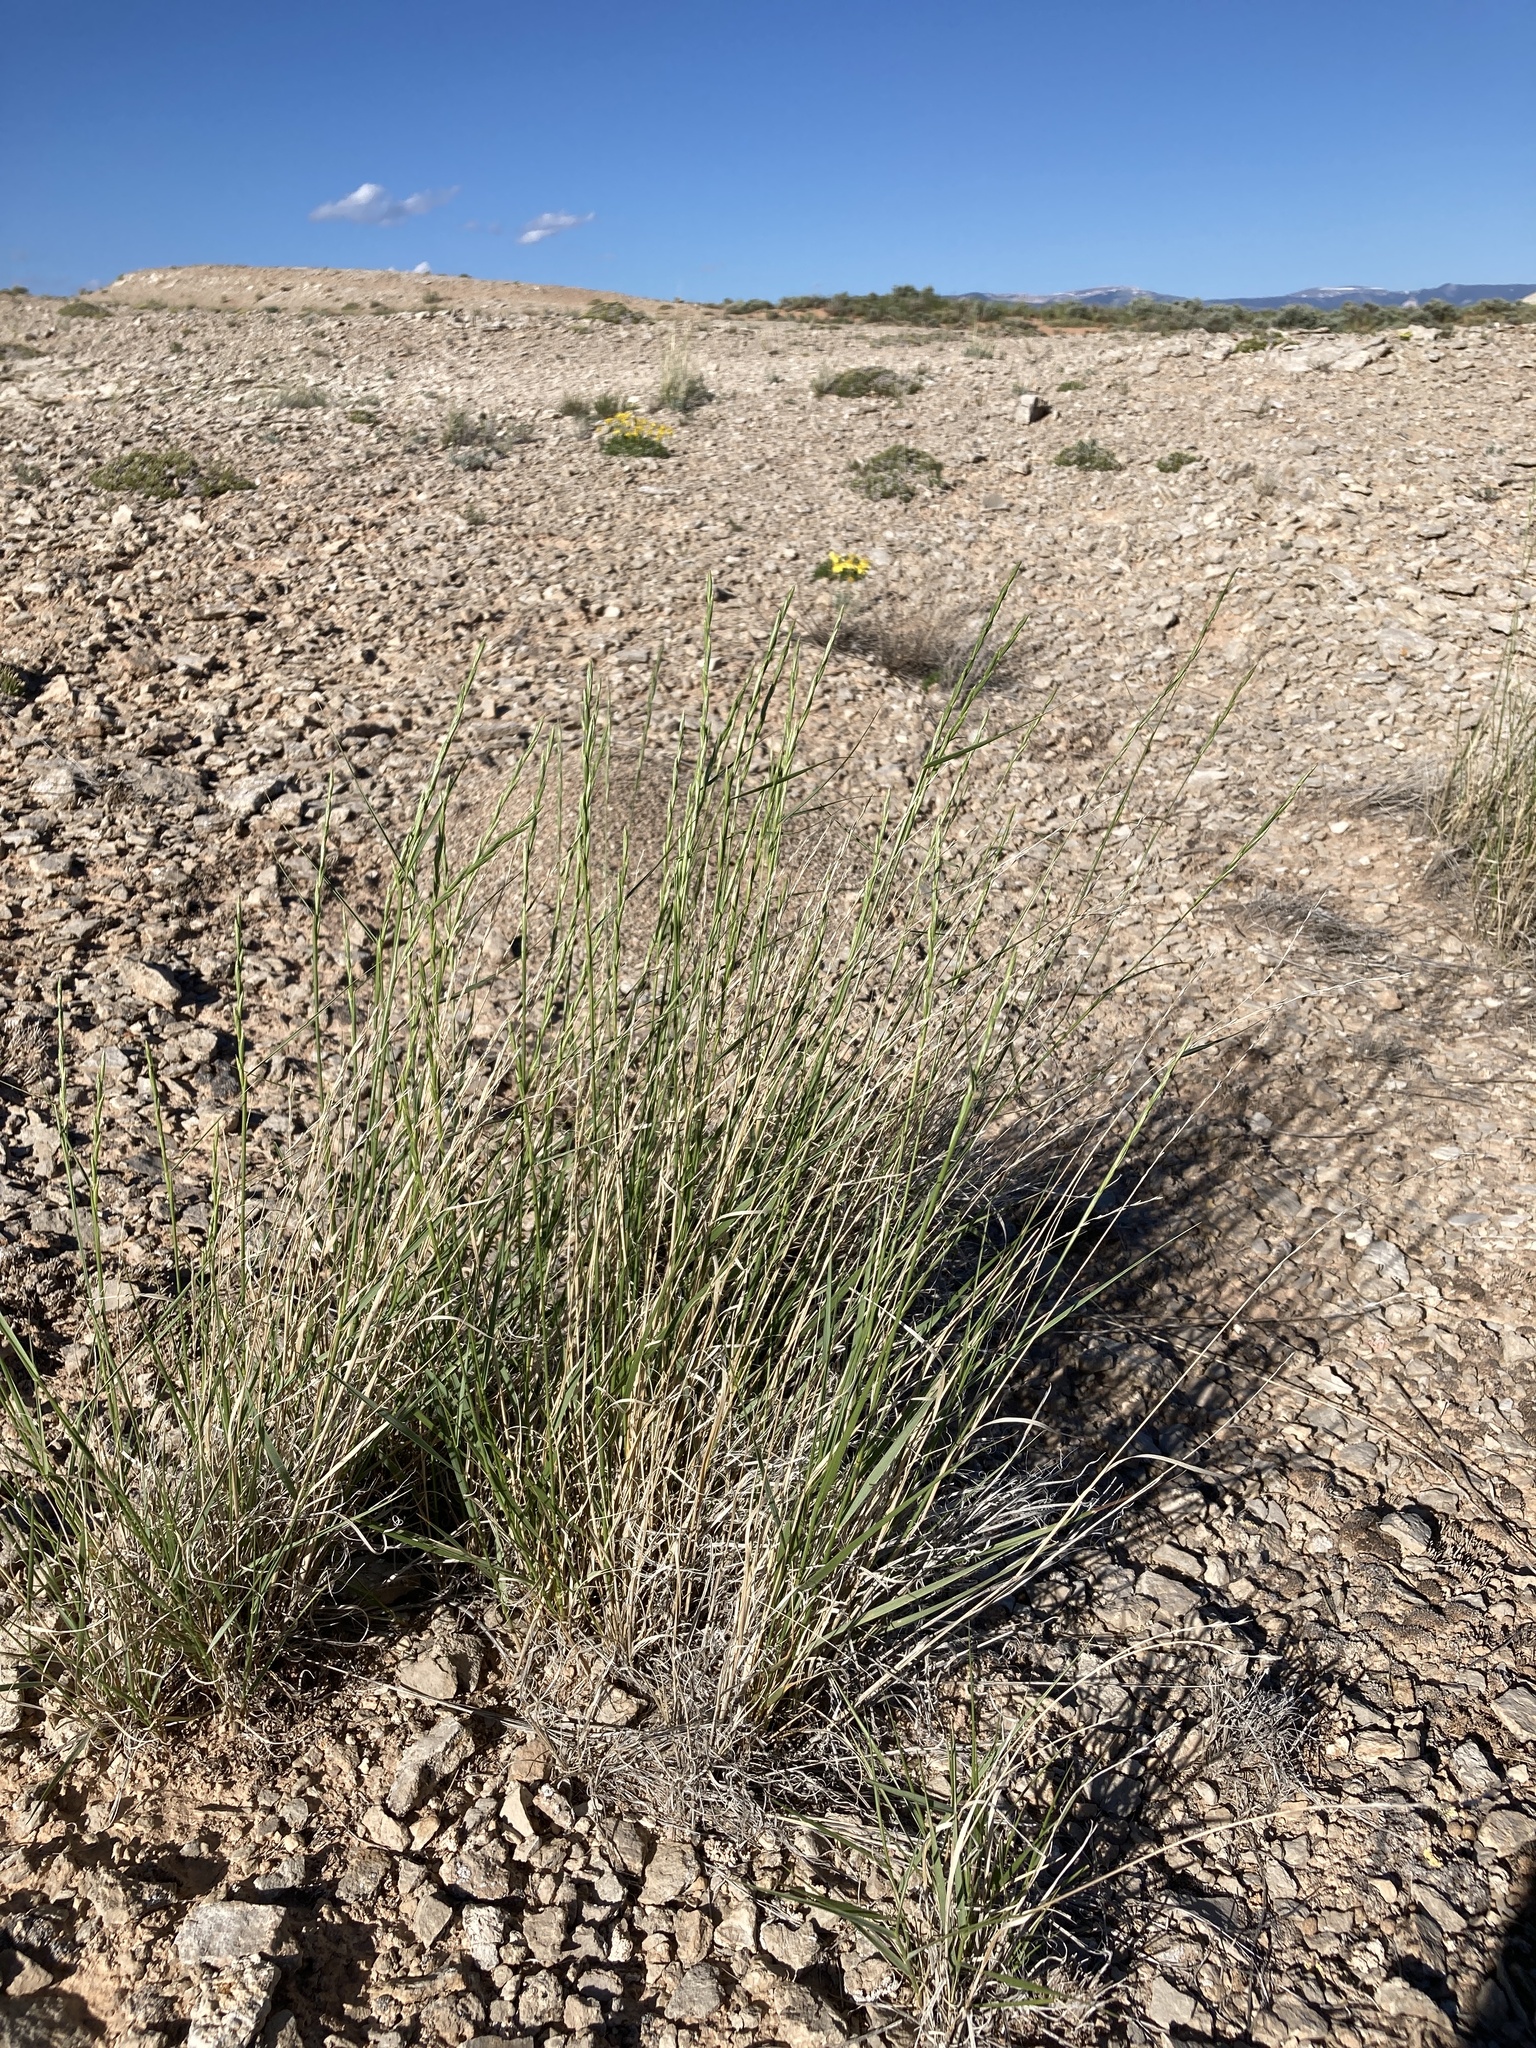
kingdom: Plantae
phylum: Tracheophyta
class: Liliopsida
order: Poales
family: Poaceae
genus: Pseudoroegneria
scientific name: Pseudoroegneria spicata
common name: Bluebunch wheatgrass
